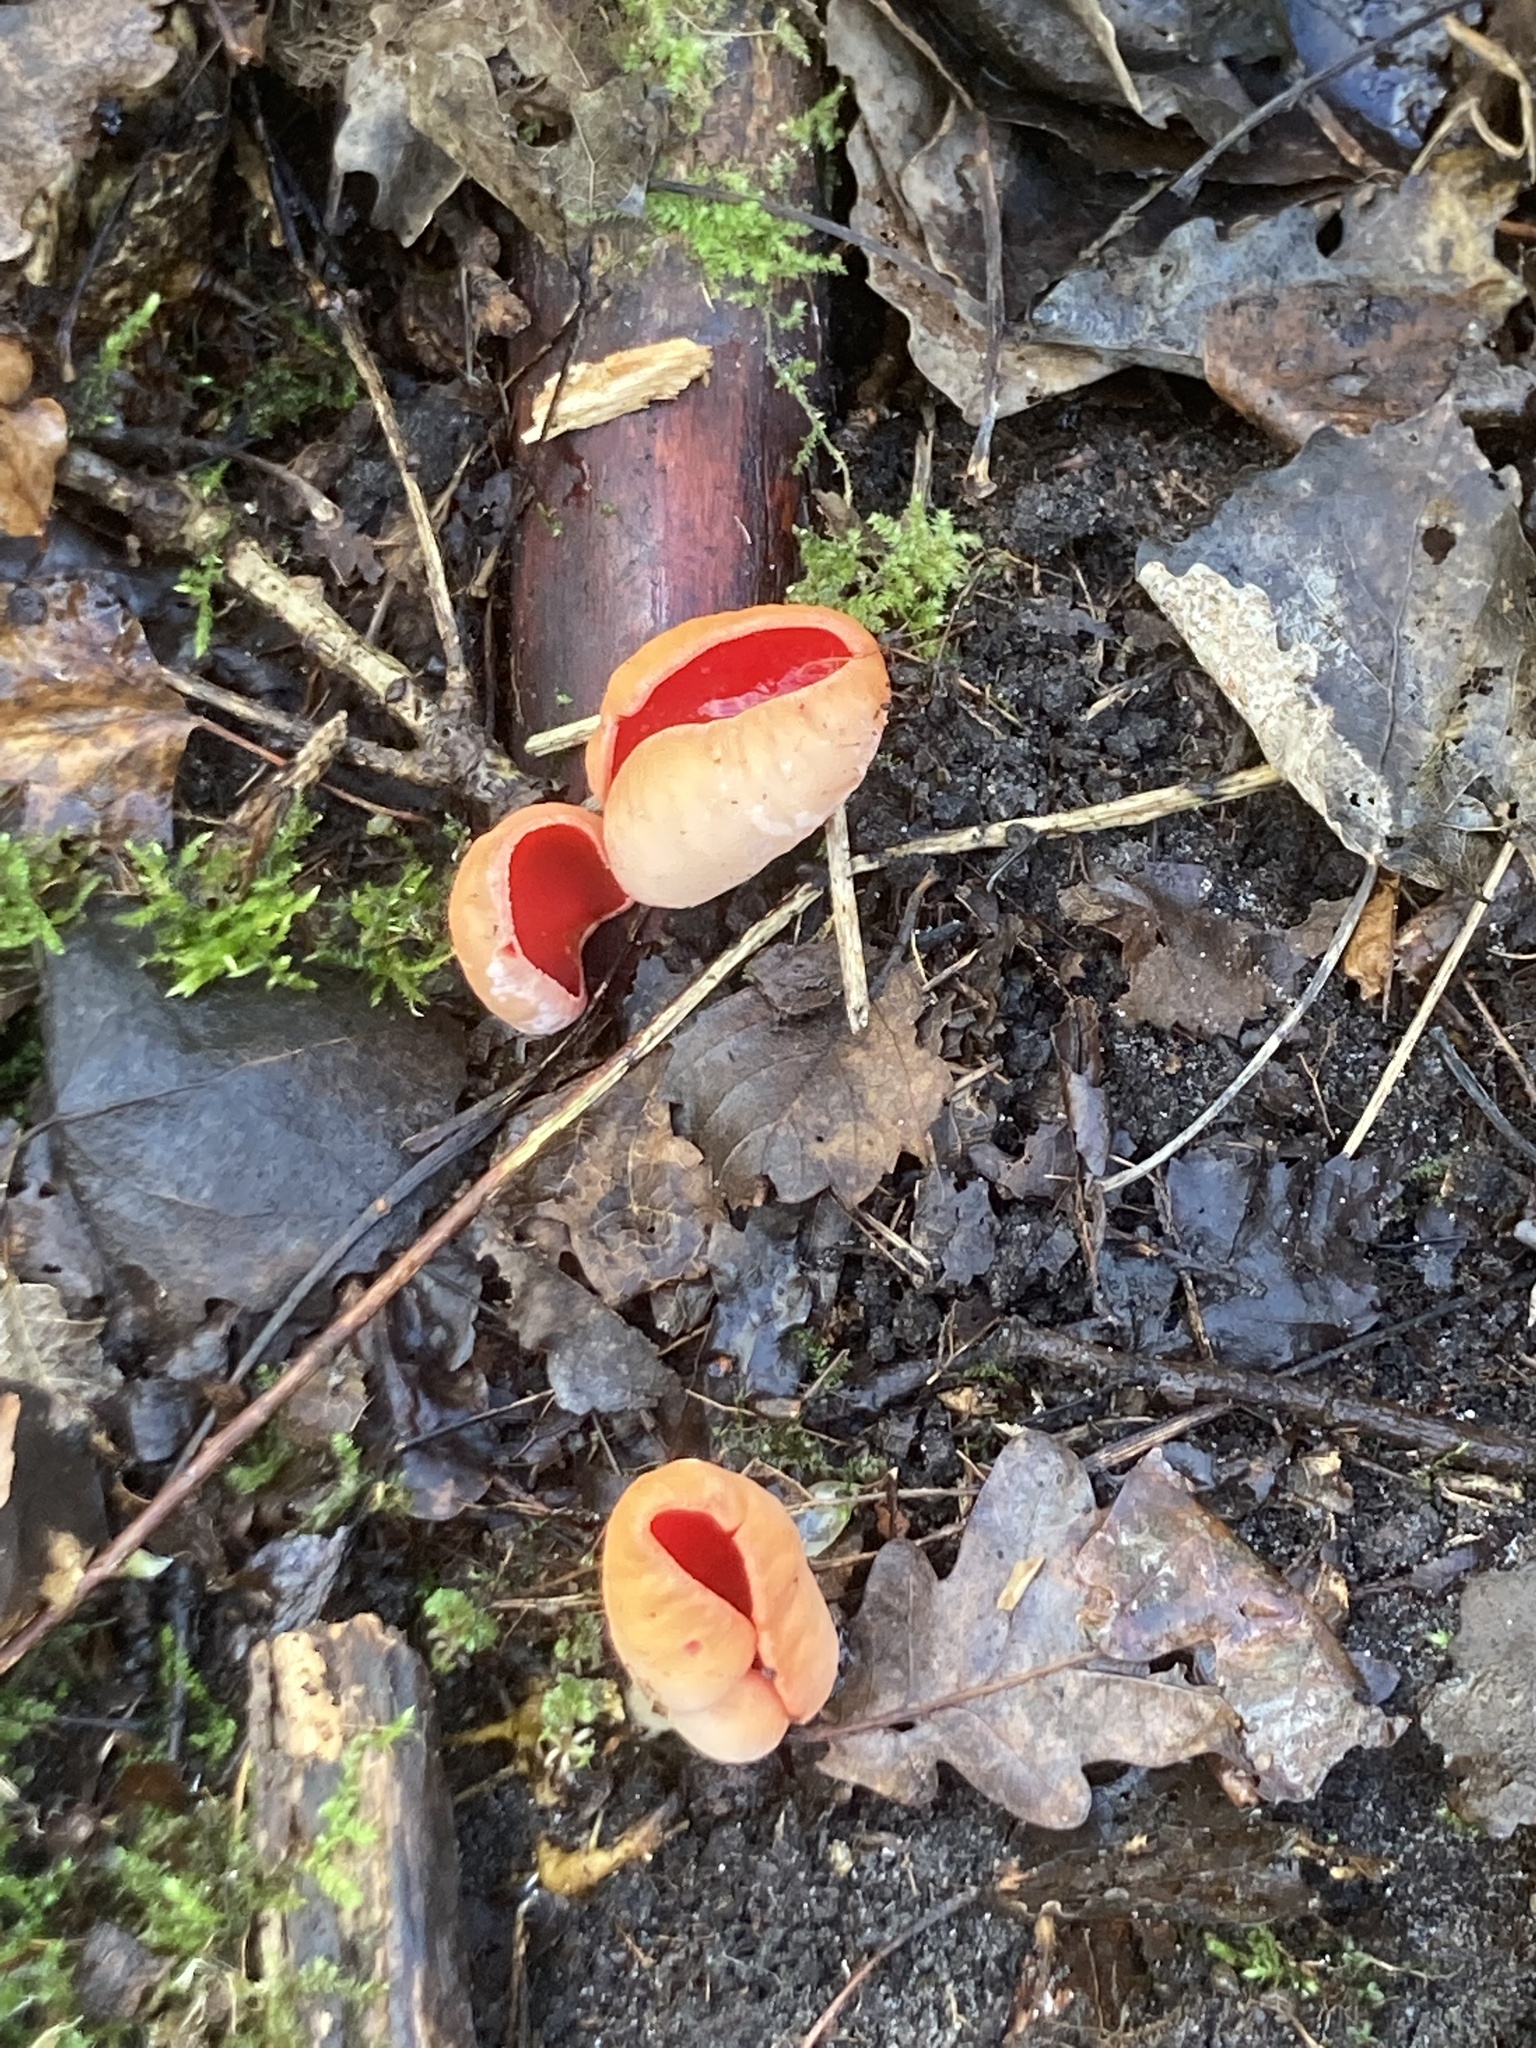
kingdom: Fungi
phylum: Ascomycota
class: Pezizomycetes
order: Pezizales
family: Sarcoscyphaceae
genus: Sarcoscypha
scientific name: Sarcoscypha
